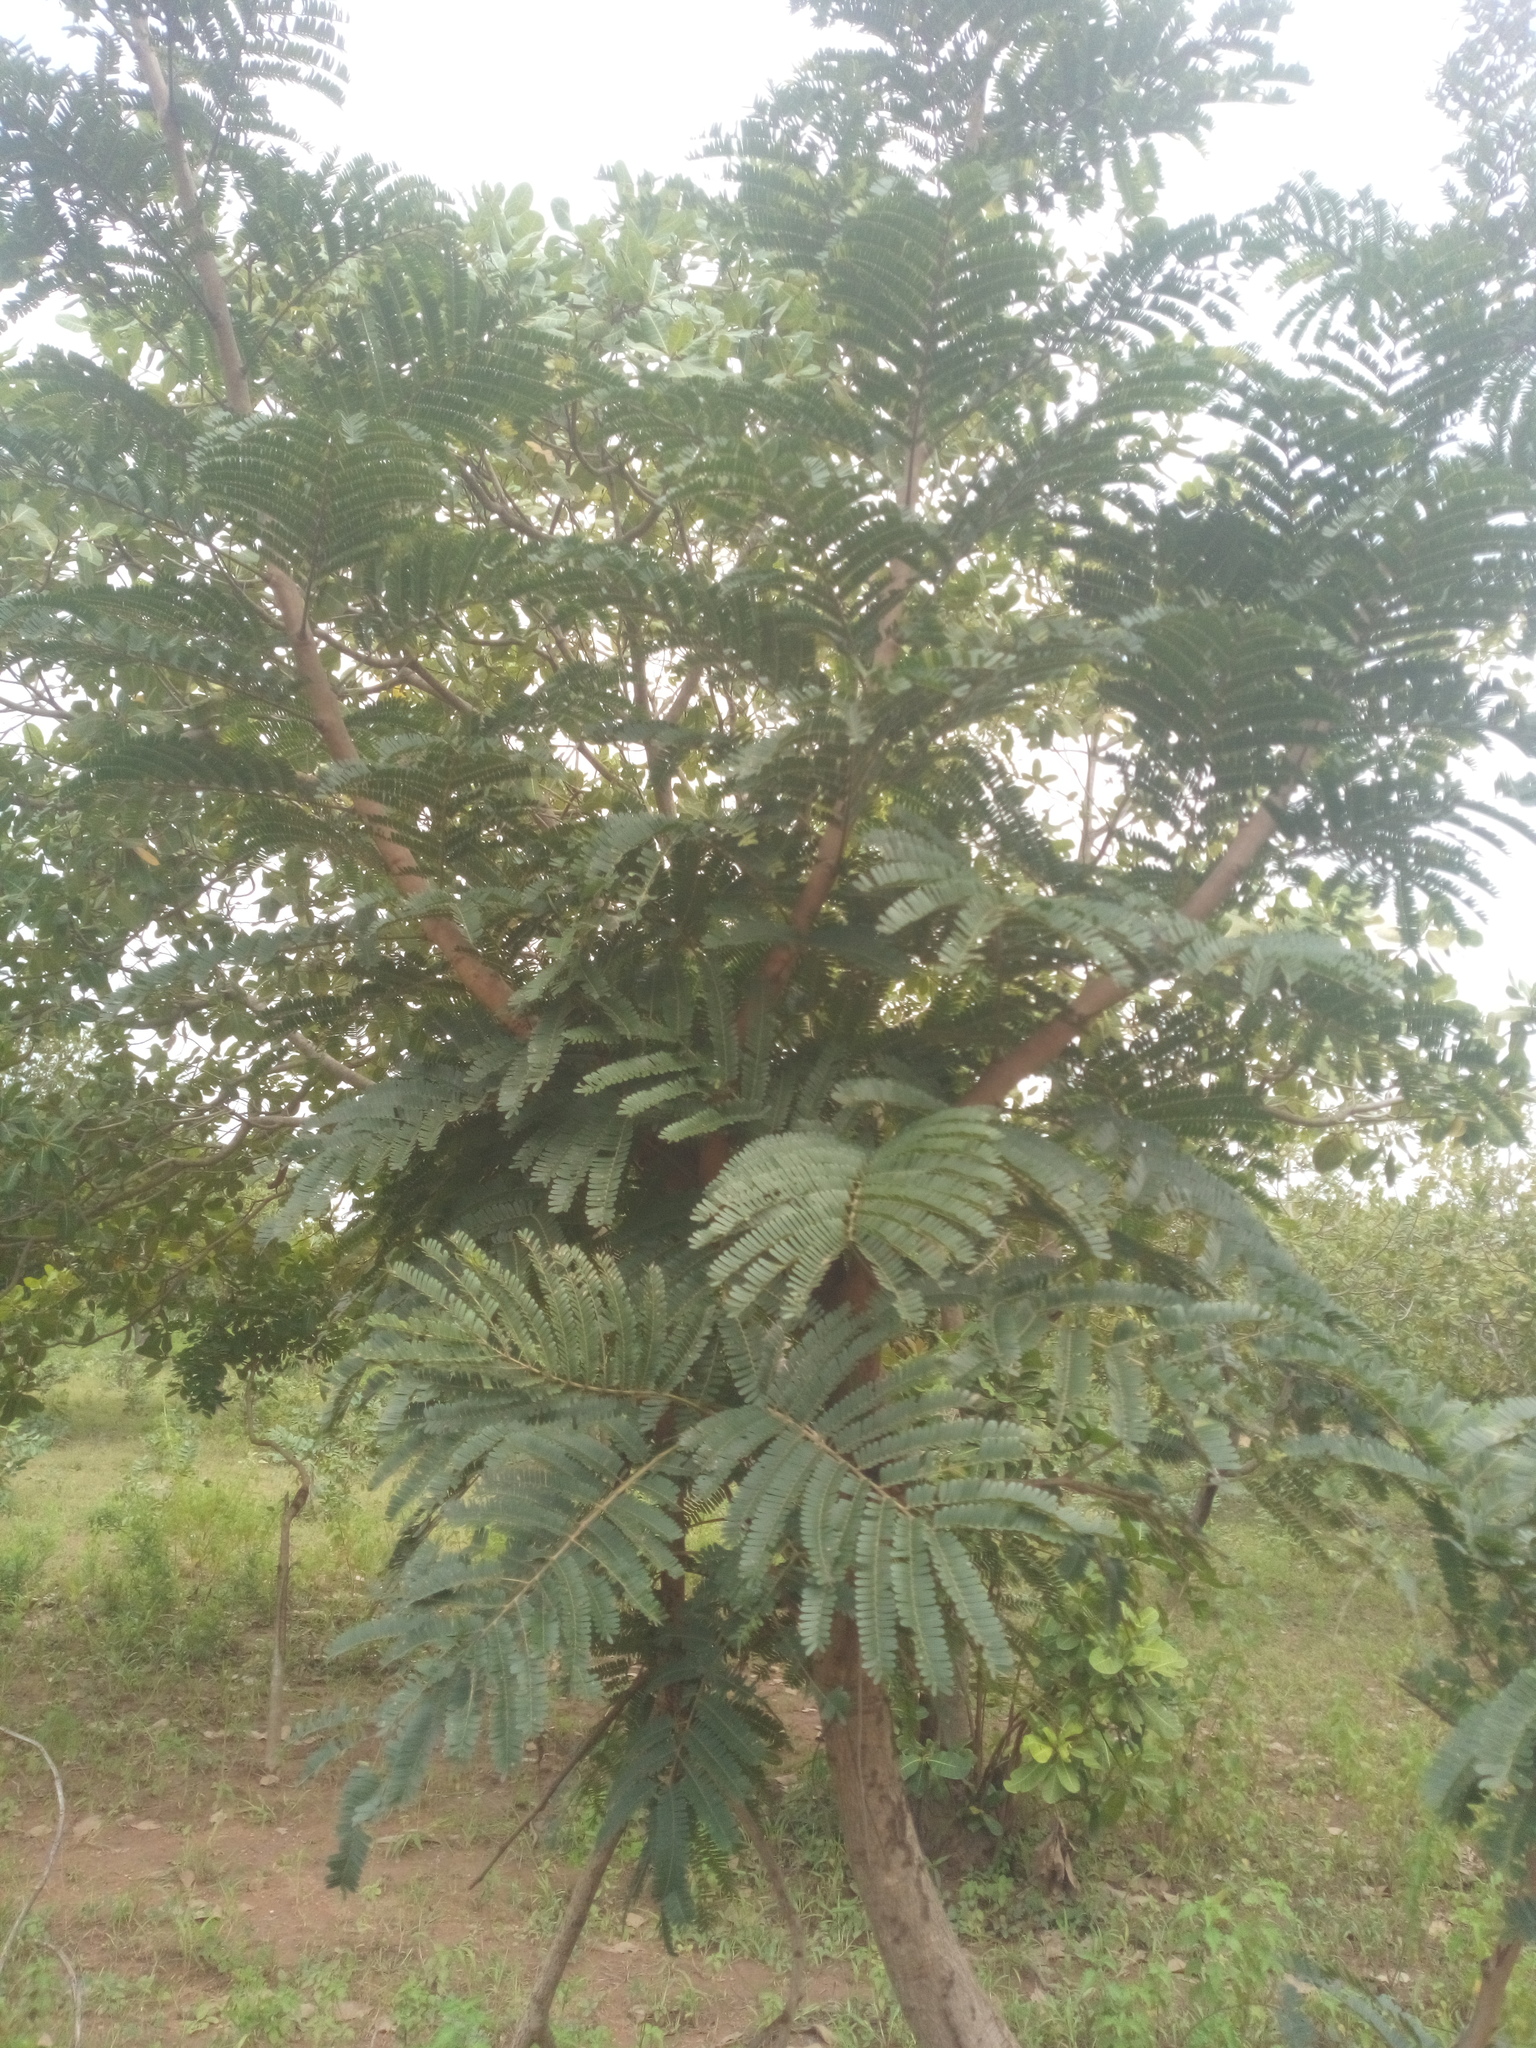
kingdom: Plantae
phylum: Tracheophyta
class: Magnoliopsida
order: Fabales
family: Fabaceae
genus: Parkia
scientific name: Parkia biglobosa
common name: African locust-bean
